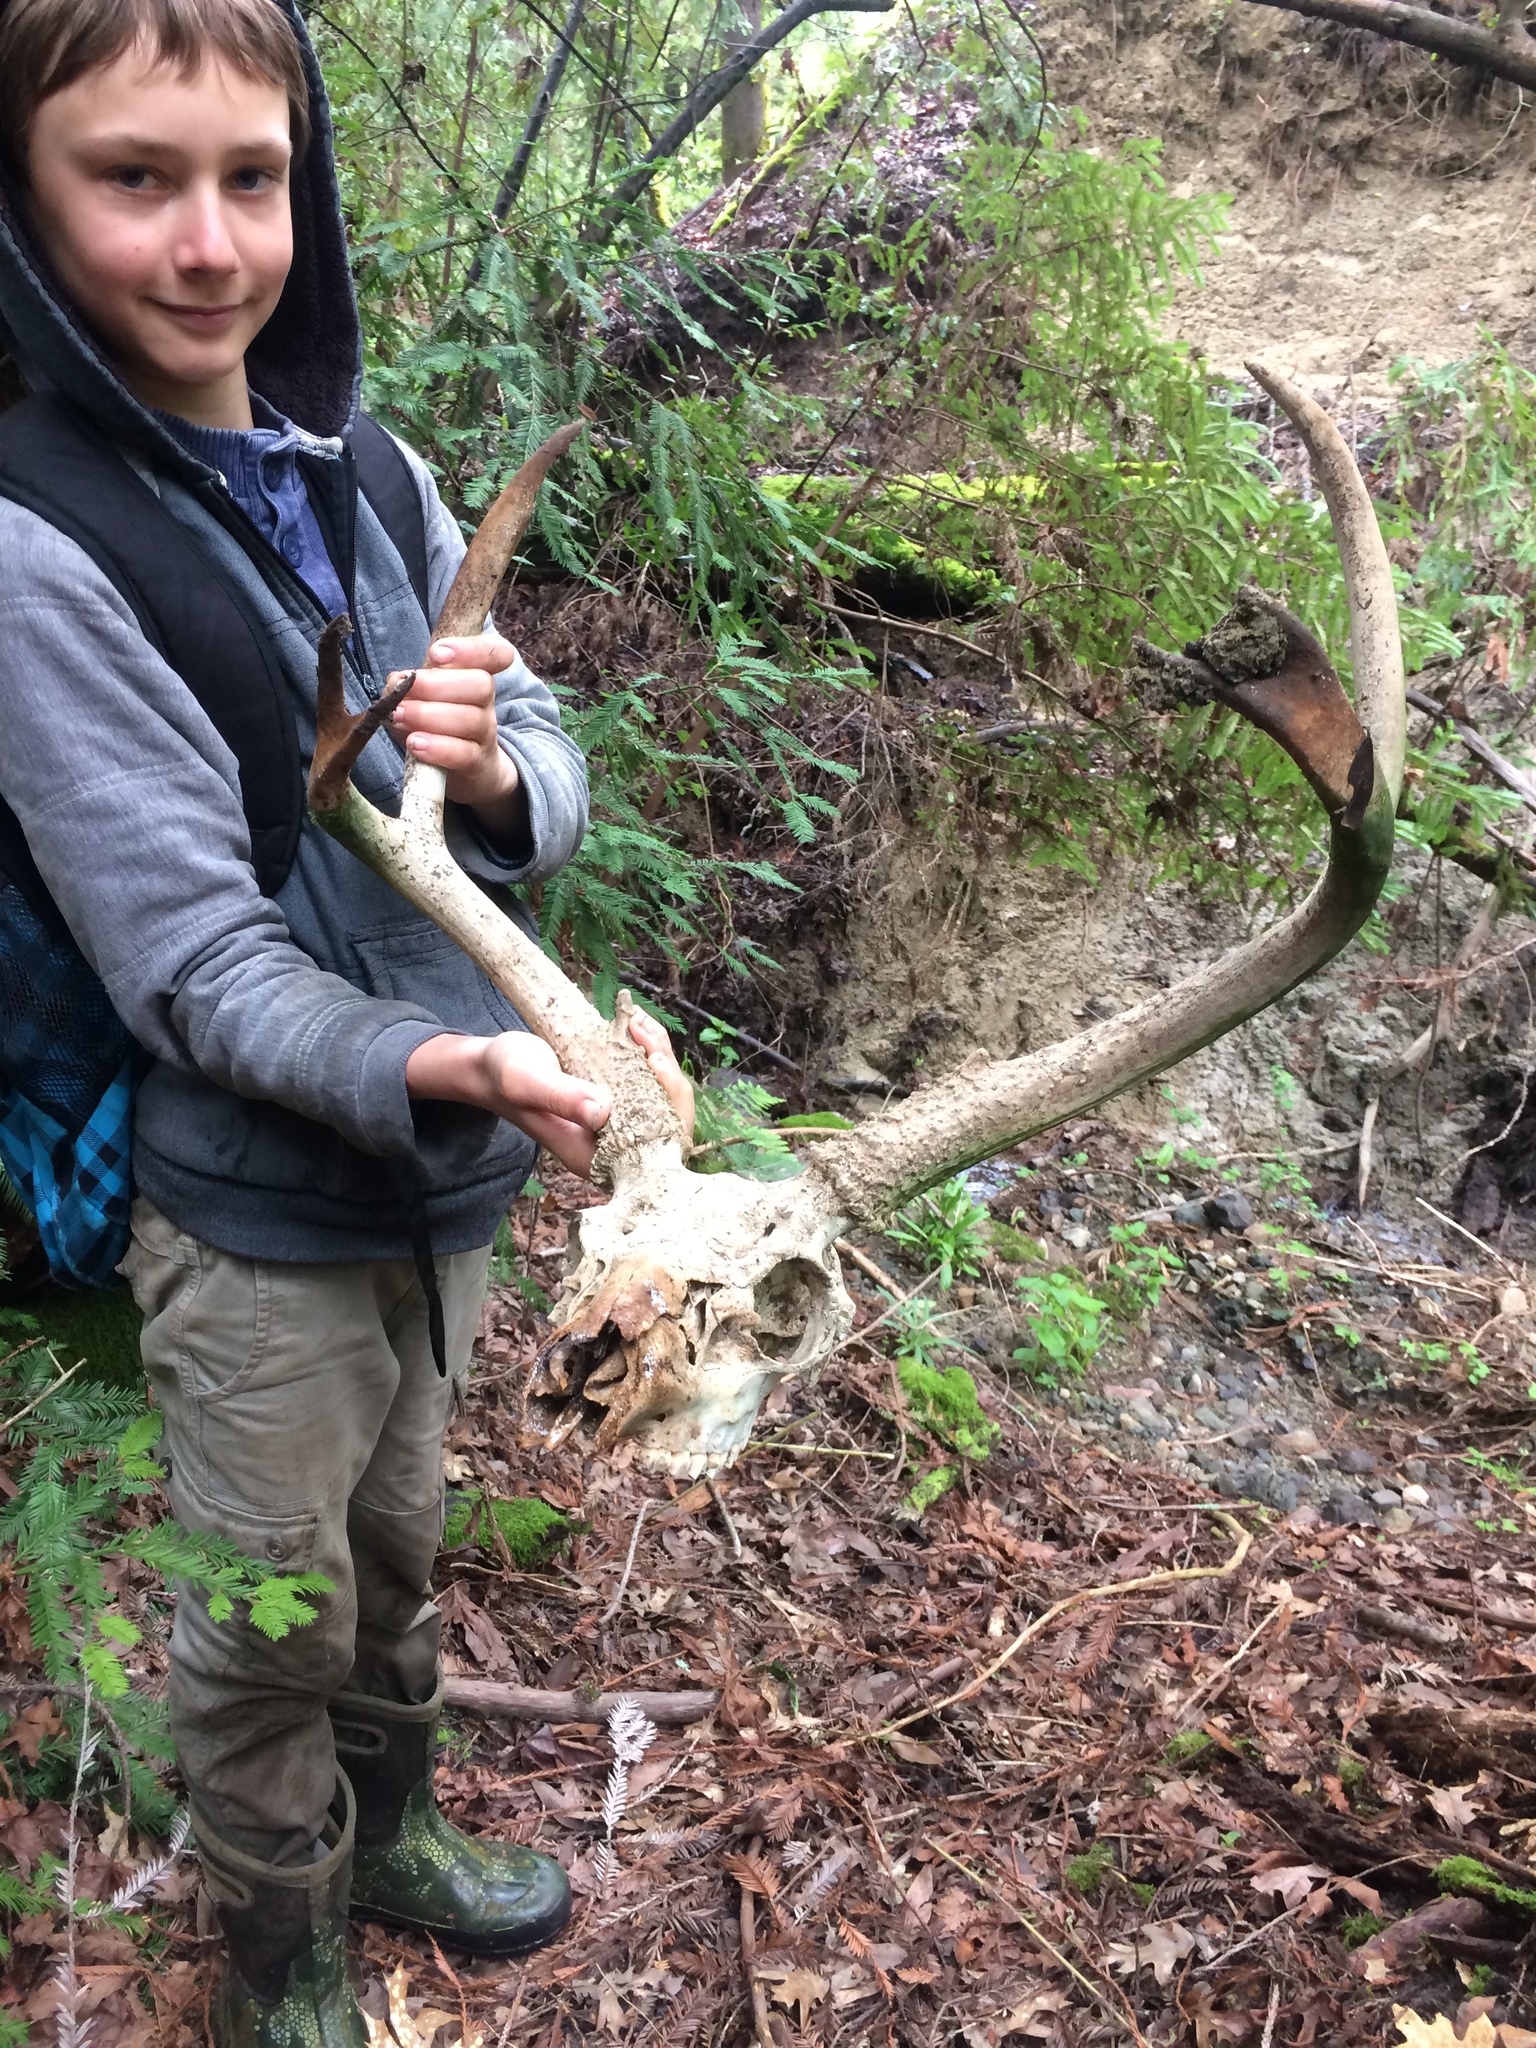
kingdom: Animalia
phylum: Chordata
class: Mammalia
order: Artiodactyla
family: Cervidae
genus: Odocoileus
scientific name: Odocoileus hemionus
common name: Mule deer
